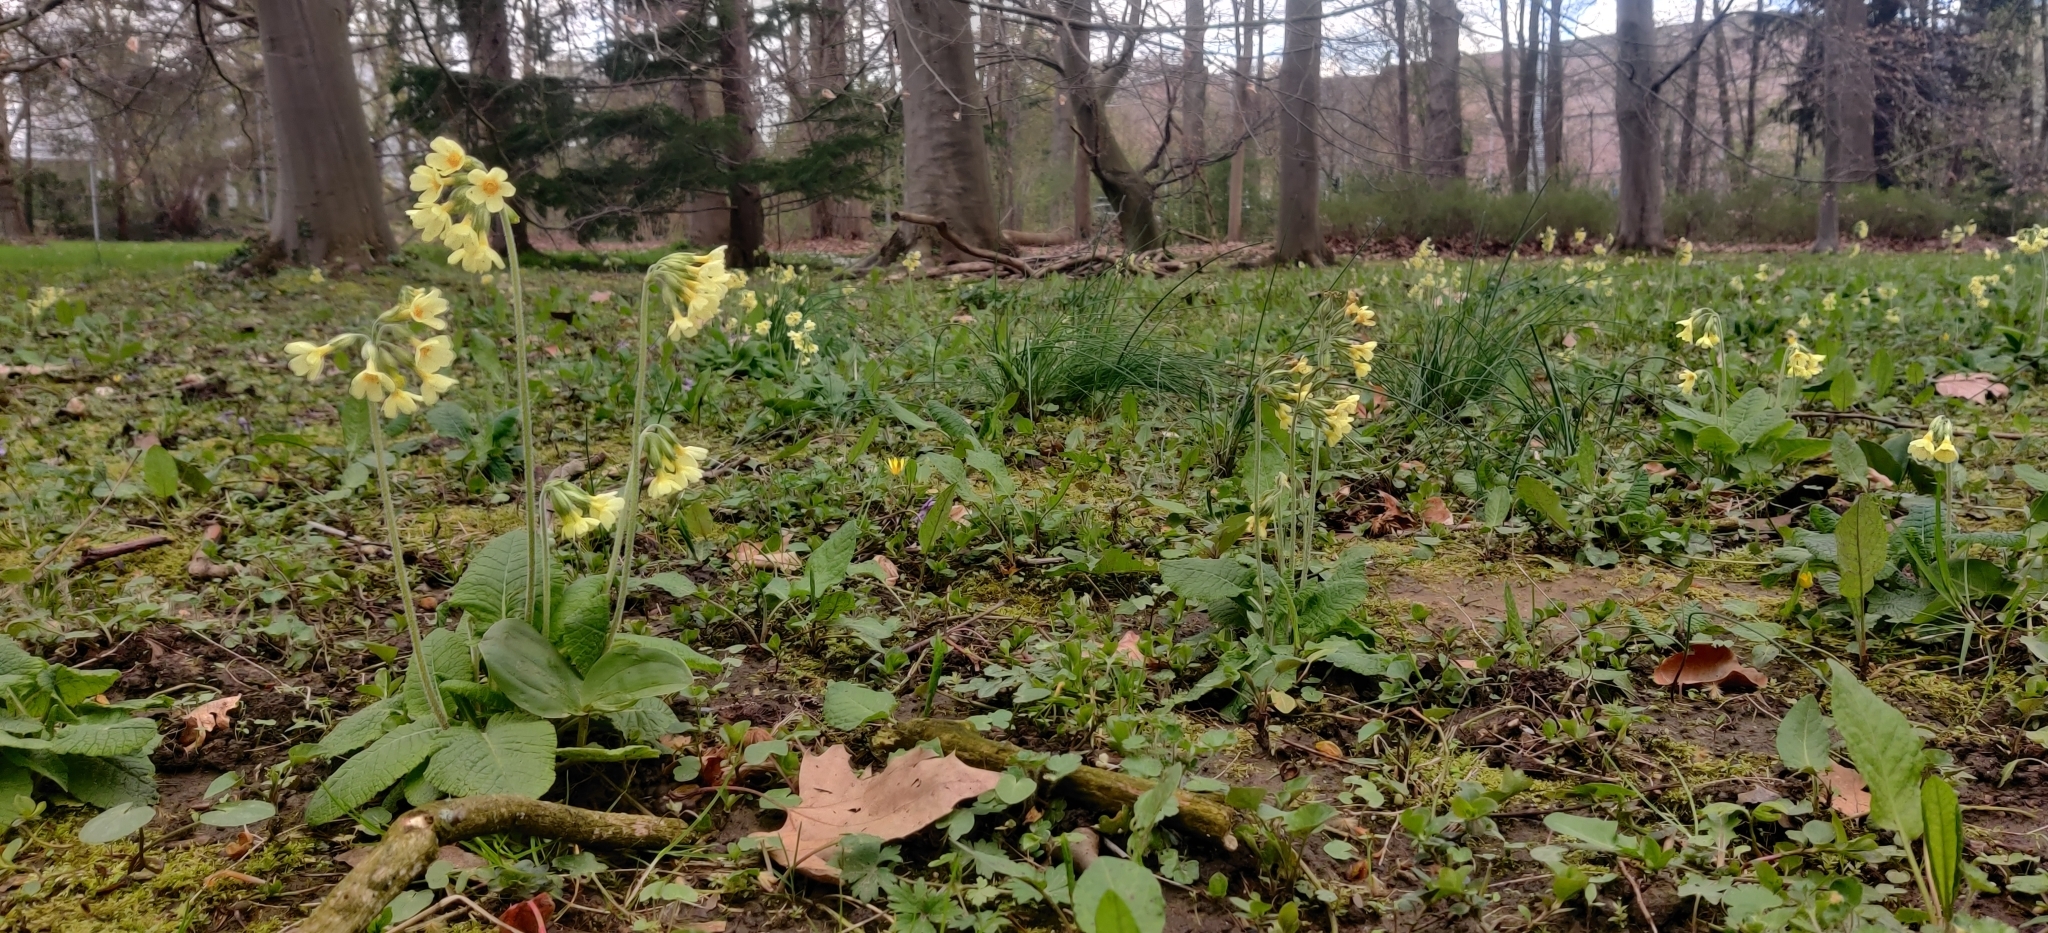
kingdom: Plantae
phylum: Tracheophyta
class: Magnoliopsida
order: Ericales
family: Primulaceae
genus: Primula
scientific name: Primula elatior
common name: Oxlip
